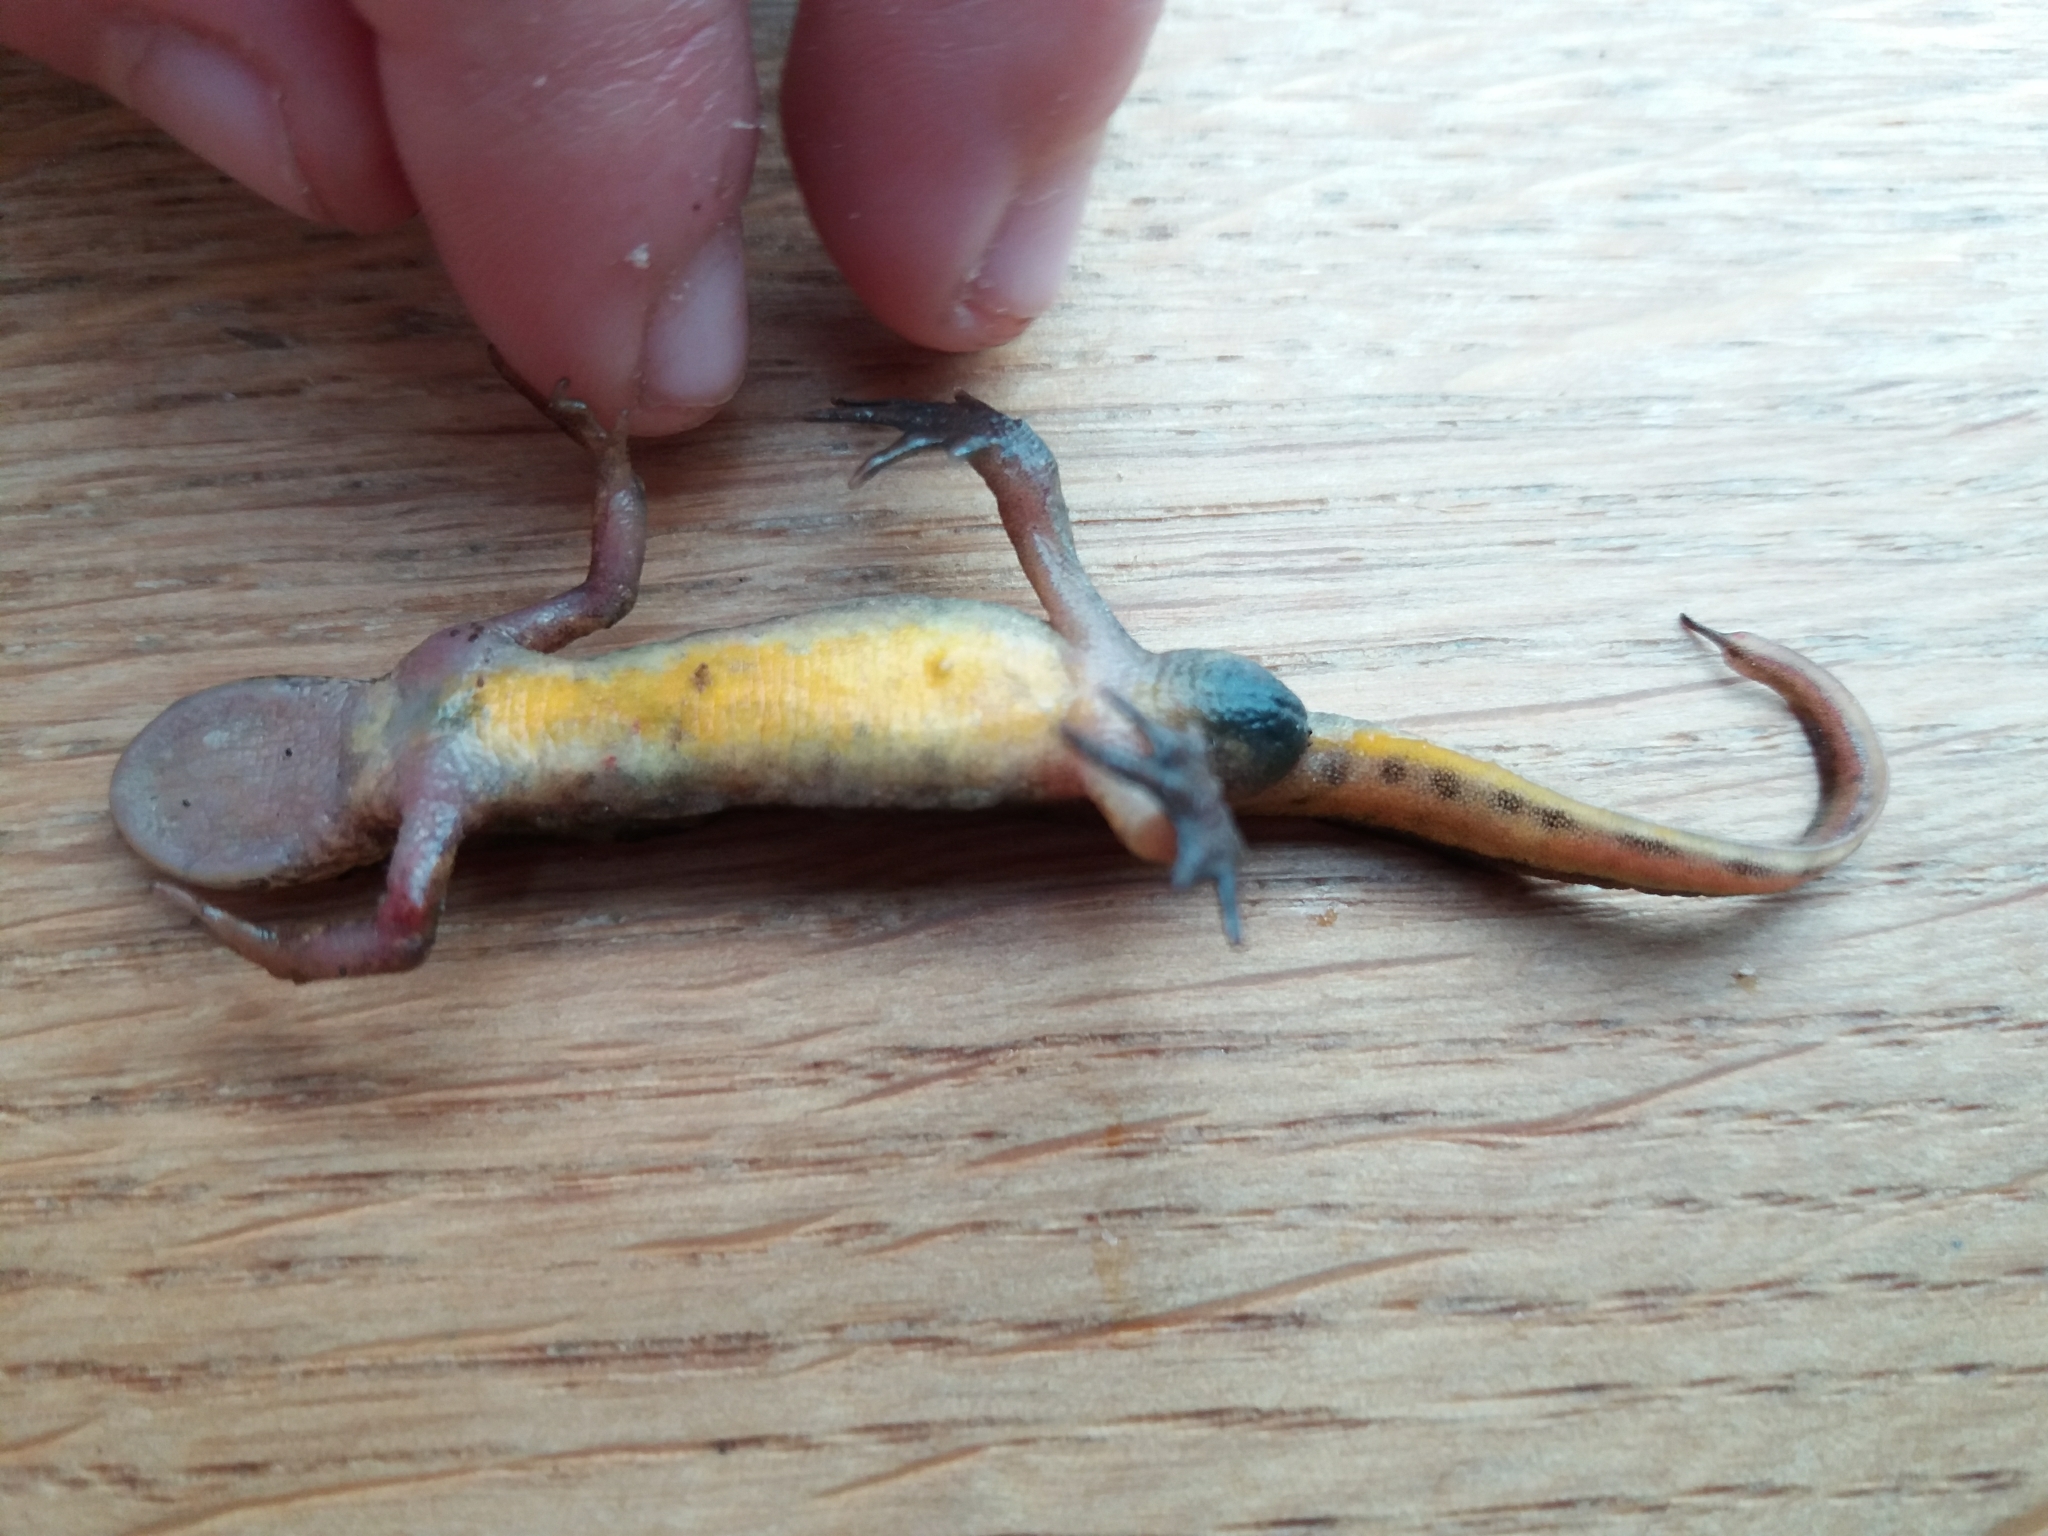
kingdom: Animalia
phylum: Chordata
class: Amphibia
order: Caudata
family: Salamandridae
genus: Lissotriton
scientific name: Lissotriton helveticus
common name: Palmate newt
